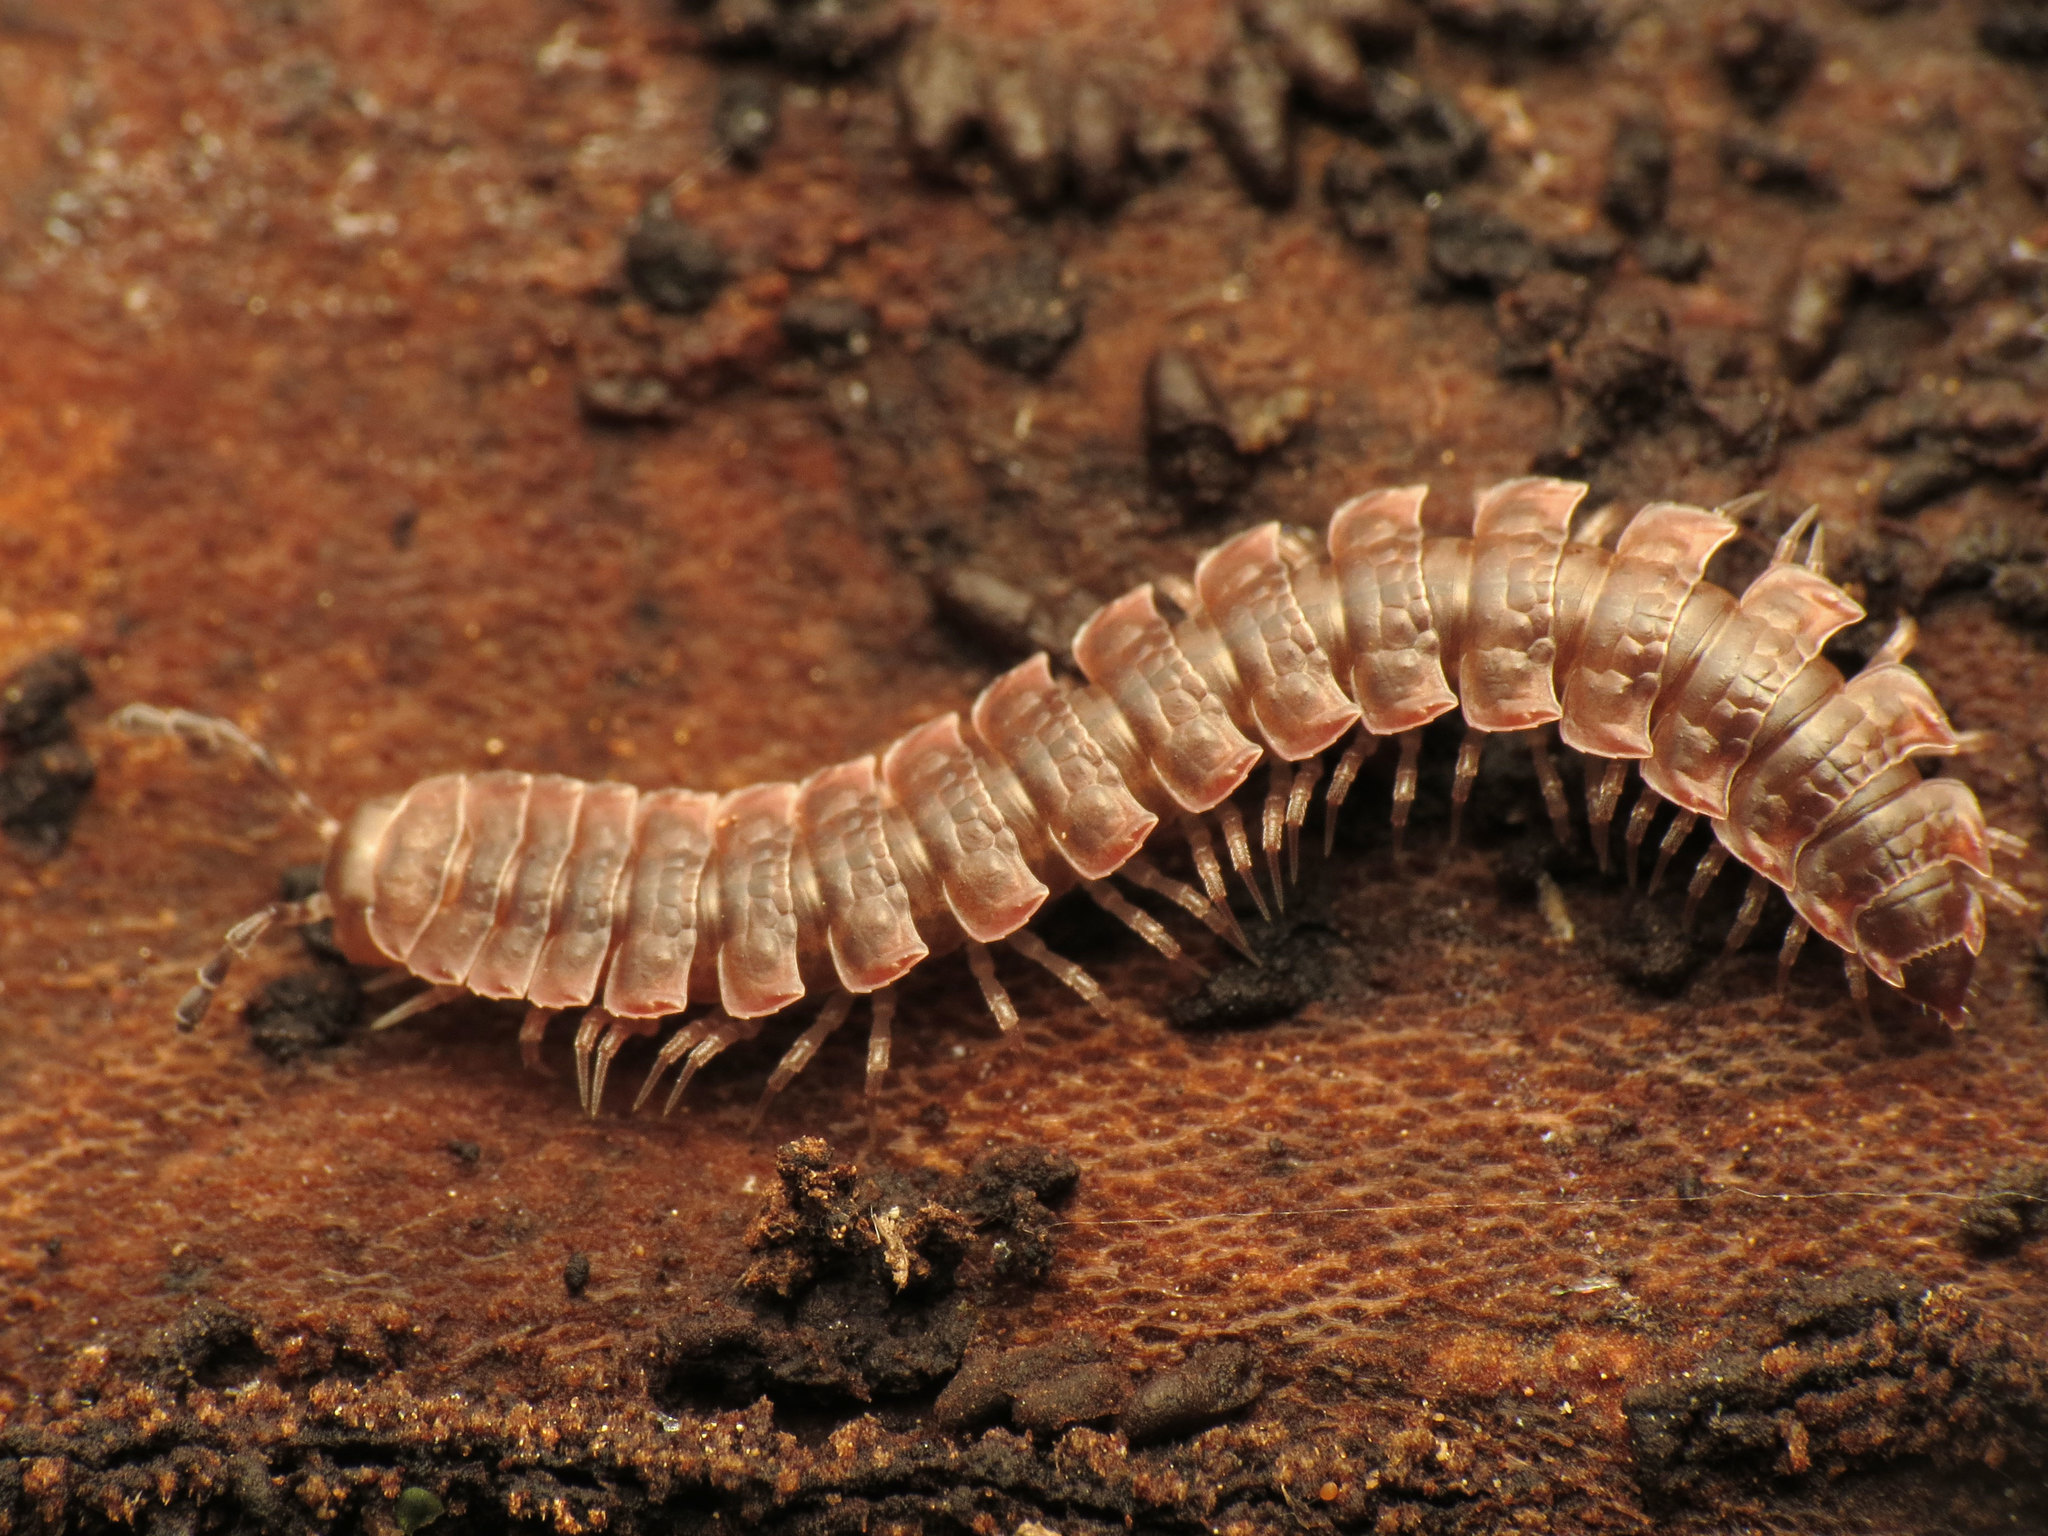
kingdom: Animalia
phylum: Arthropoda
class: Diplopoda
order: Polydesmida
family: Polydesmidae
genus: Pseudopolydesmus
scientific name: Pseudopolydesmus serratus
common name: Common pink flat-back millipede
